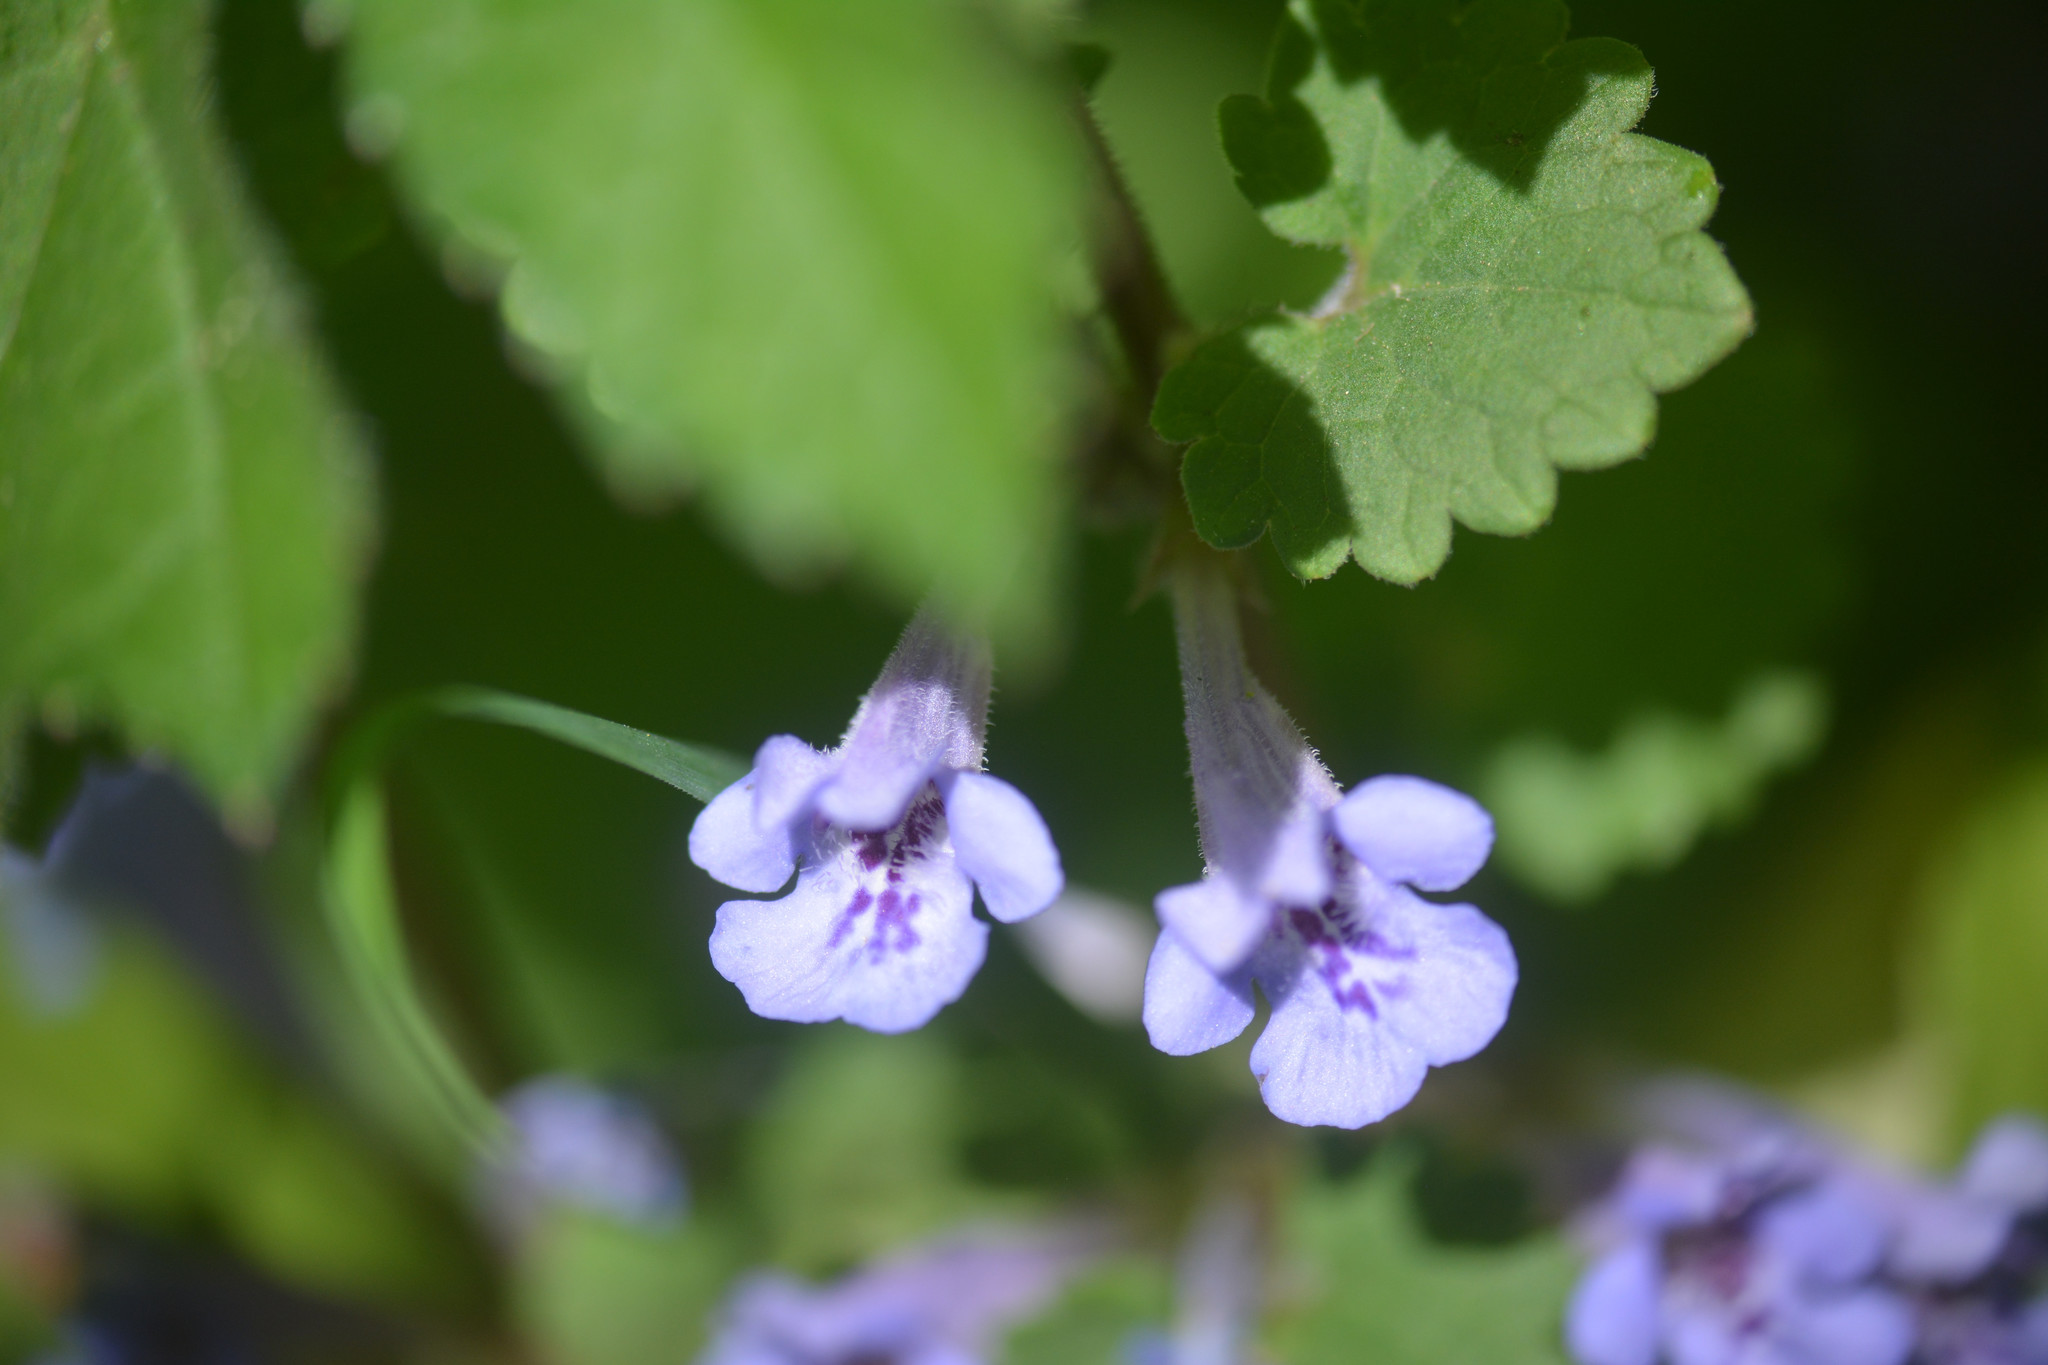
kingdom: Plantae
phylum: Tracheophyta
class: Magnoliopsida
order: Lamiales
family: Lamiaceae
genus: Glechoma
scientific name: Glechoma hederacea
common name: Ground ivy
